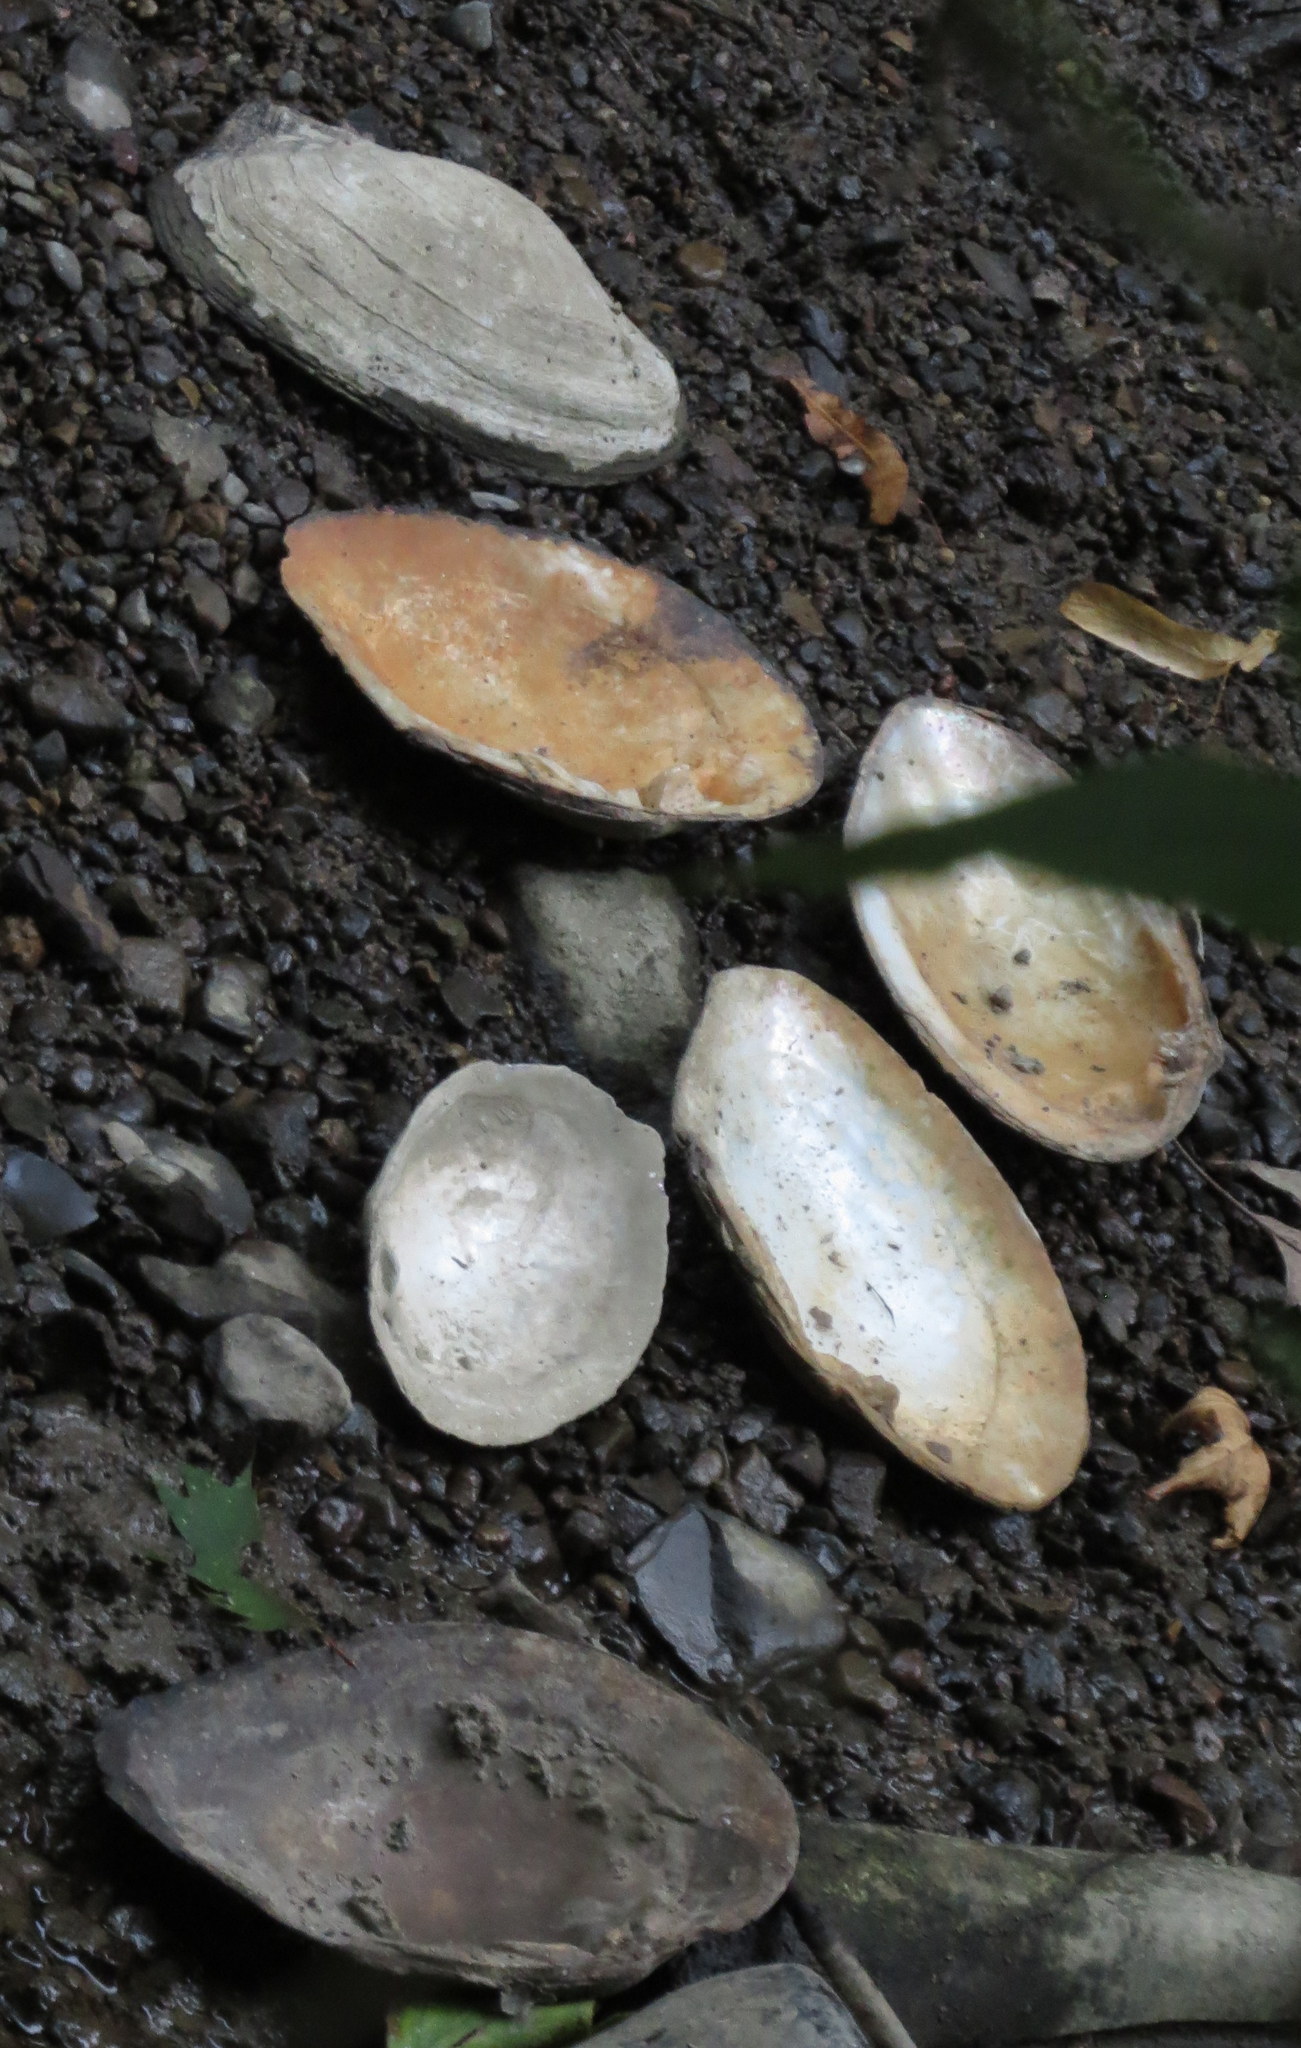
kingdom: Animalia
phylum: Mollusca
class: Bivalvia
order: Unionida
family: Unionidae
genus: Lasmigona
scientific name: Lasmigona complanata
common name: White heelsplitter
